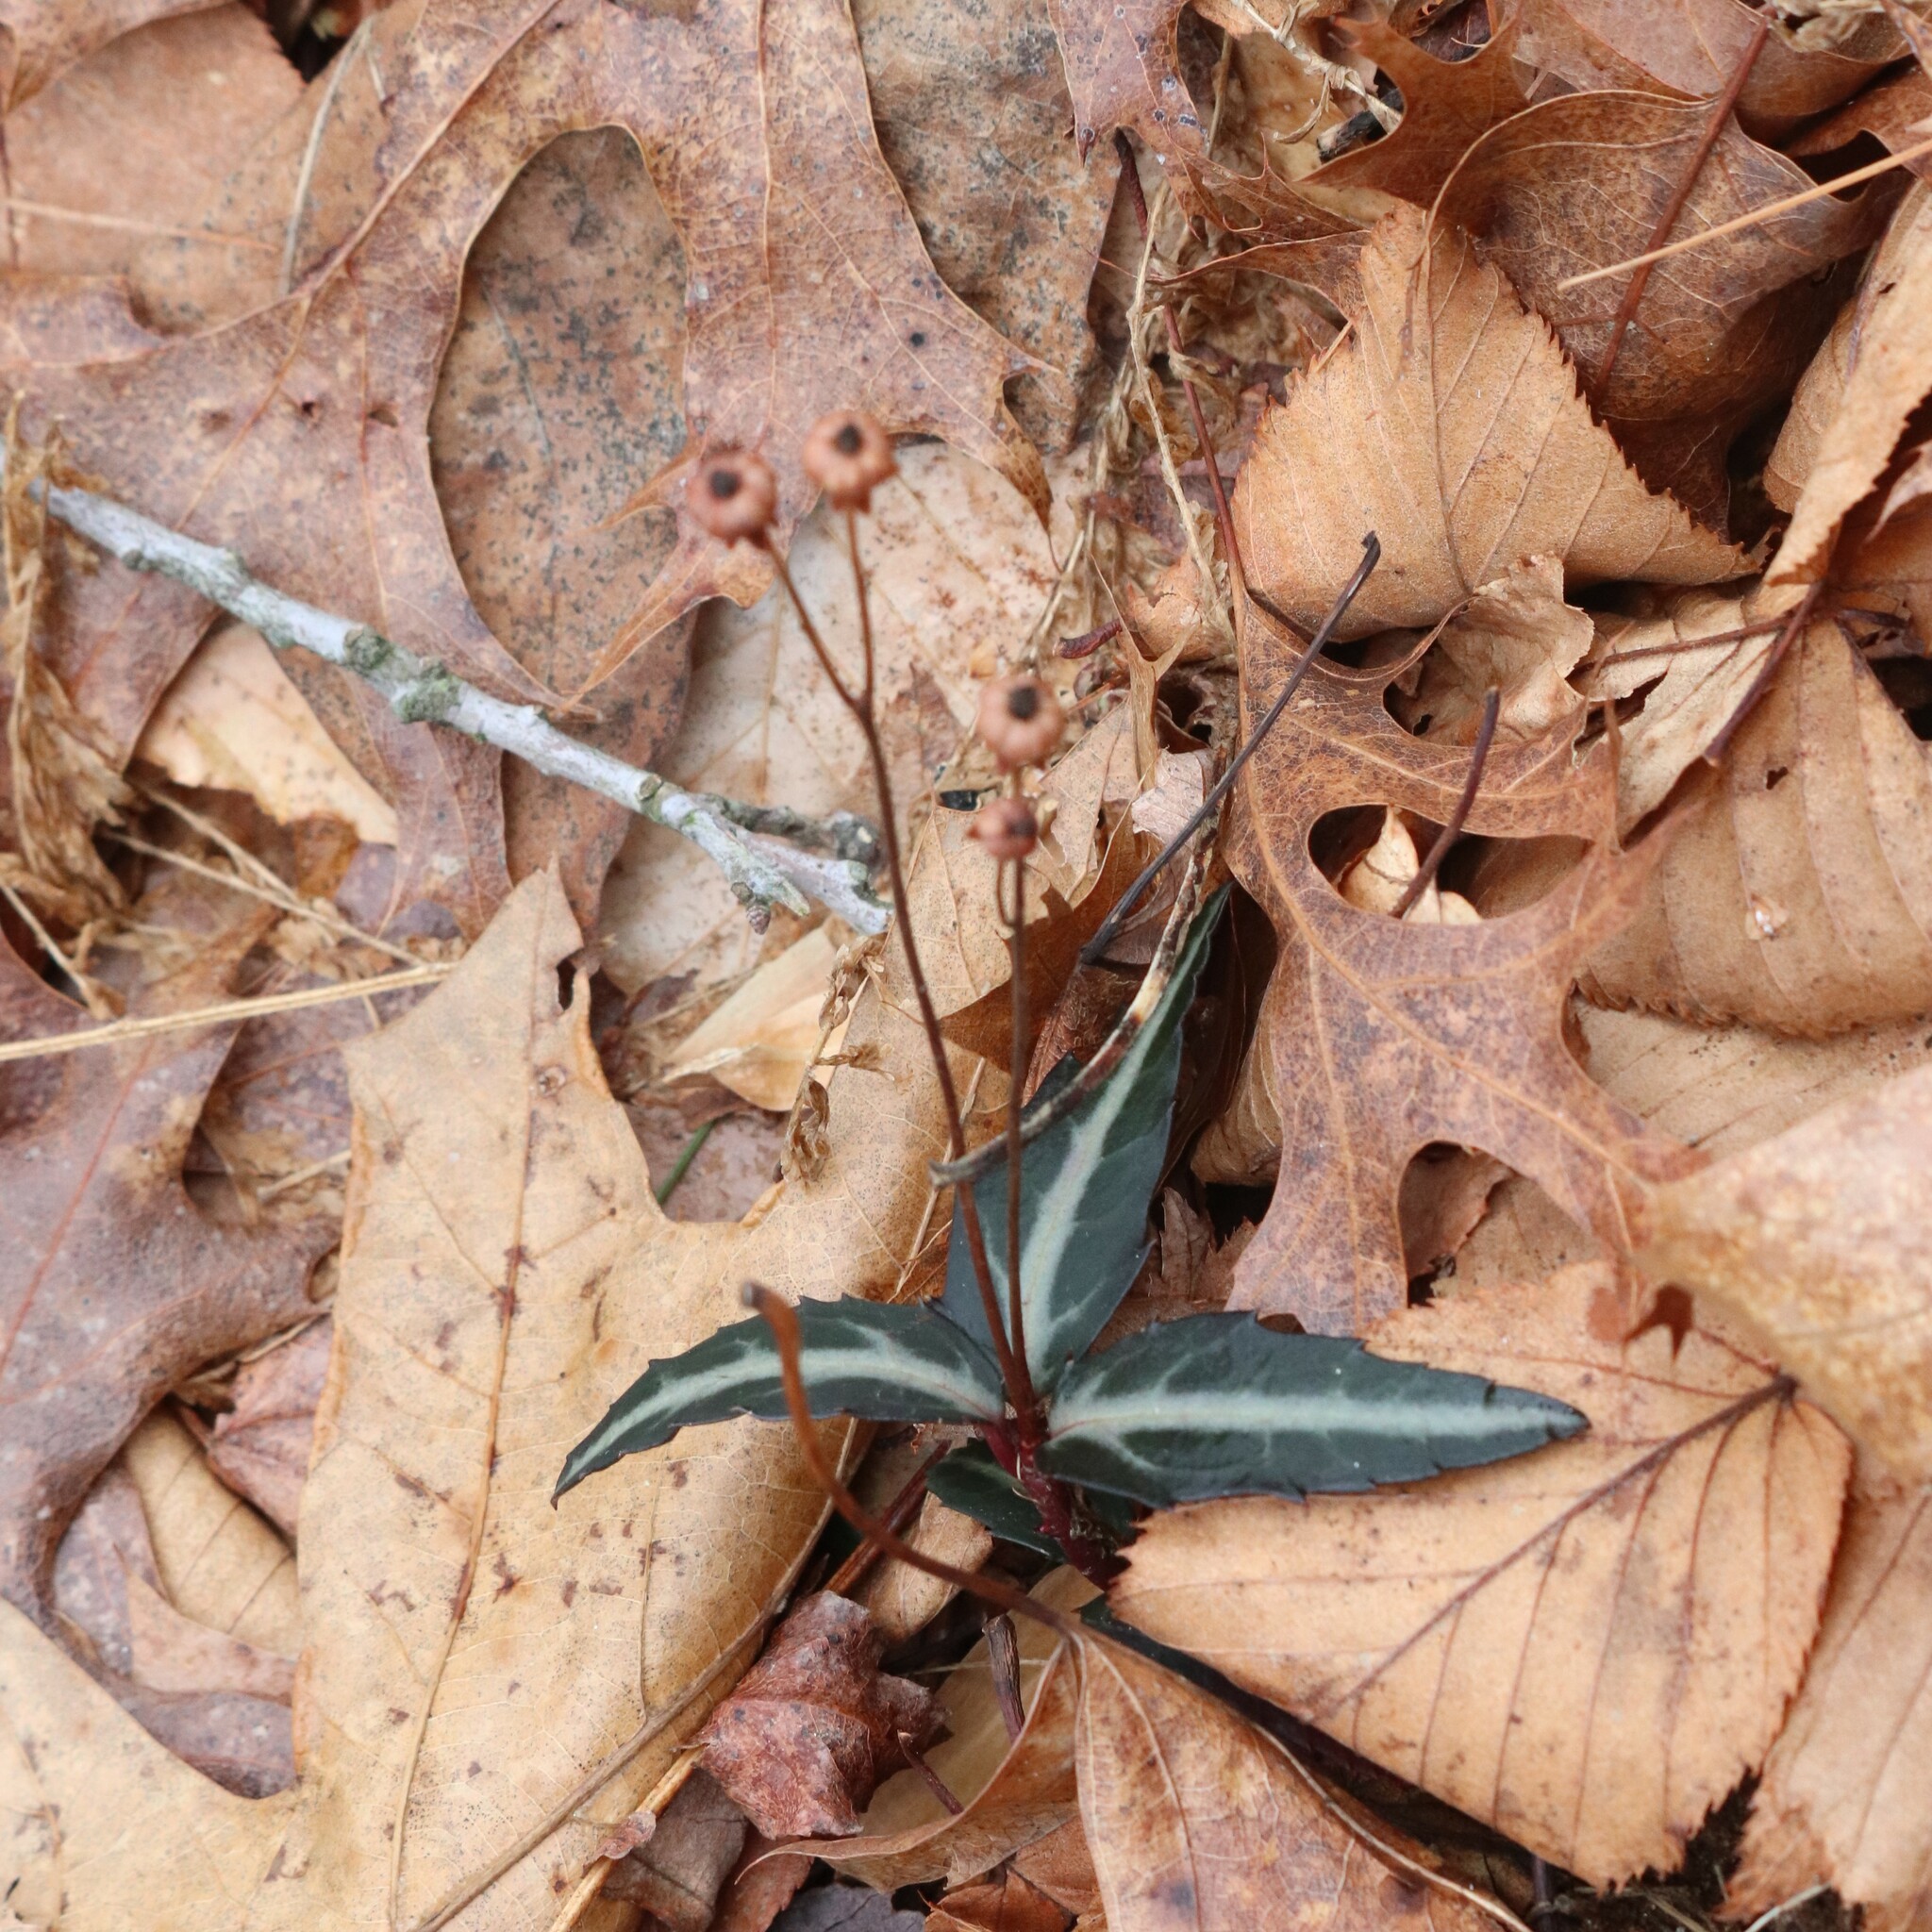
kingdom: Plantae
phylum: Tracheophyta
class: Magnoliopsida
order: Ericales
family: Ericaceae
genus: Chimaphila
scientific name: Chimaphila maculata
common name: Spotted pipsissewa
